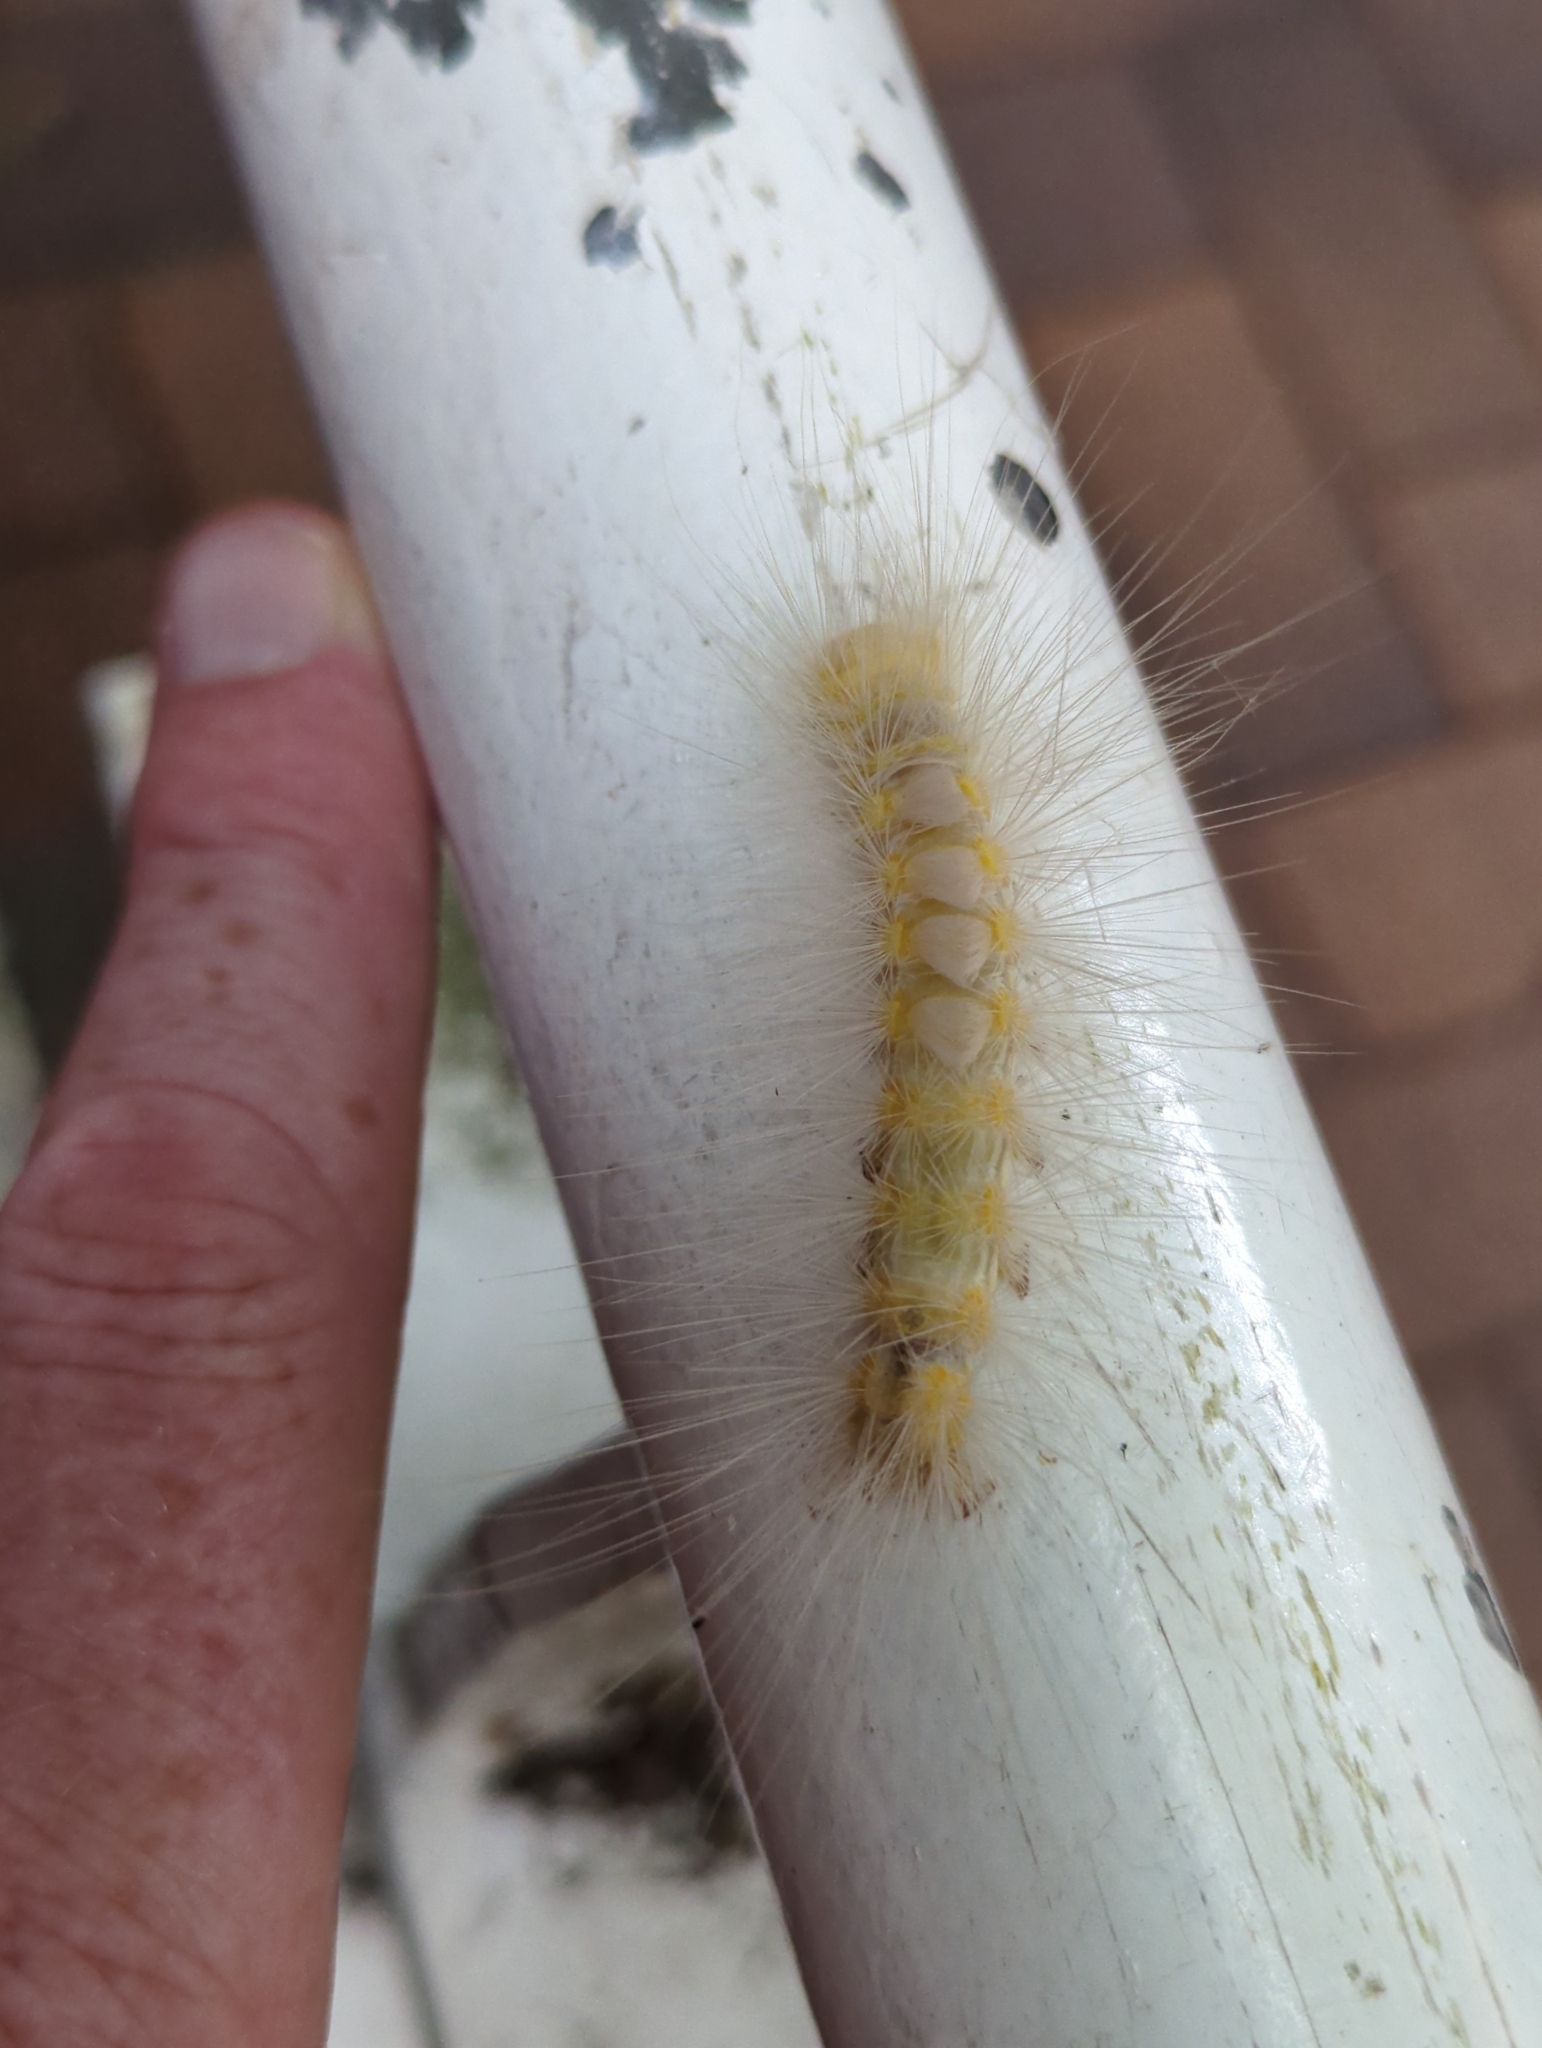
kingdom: Animalia
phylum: Arthropoda
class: Insecta
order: Lepidoptera
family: Erebidae
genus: Calliteara
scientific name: Calliteara pura
